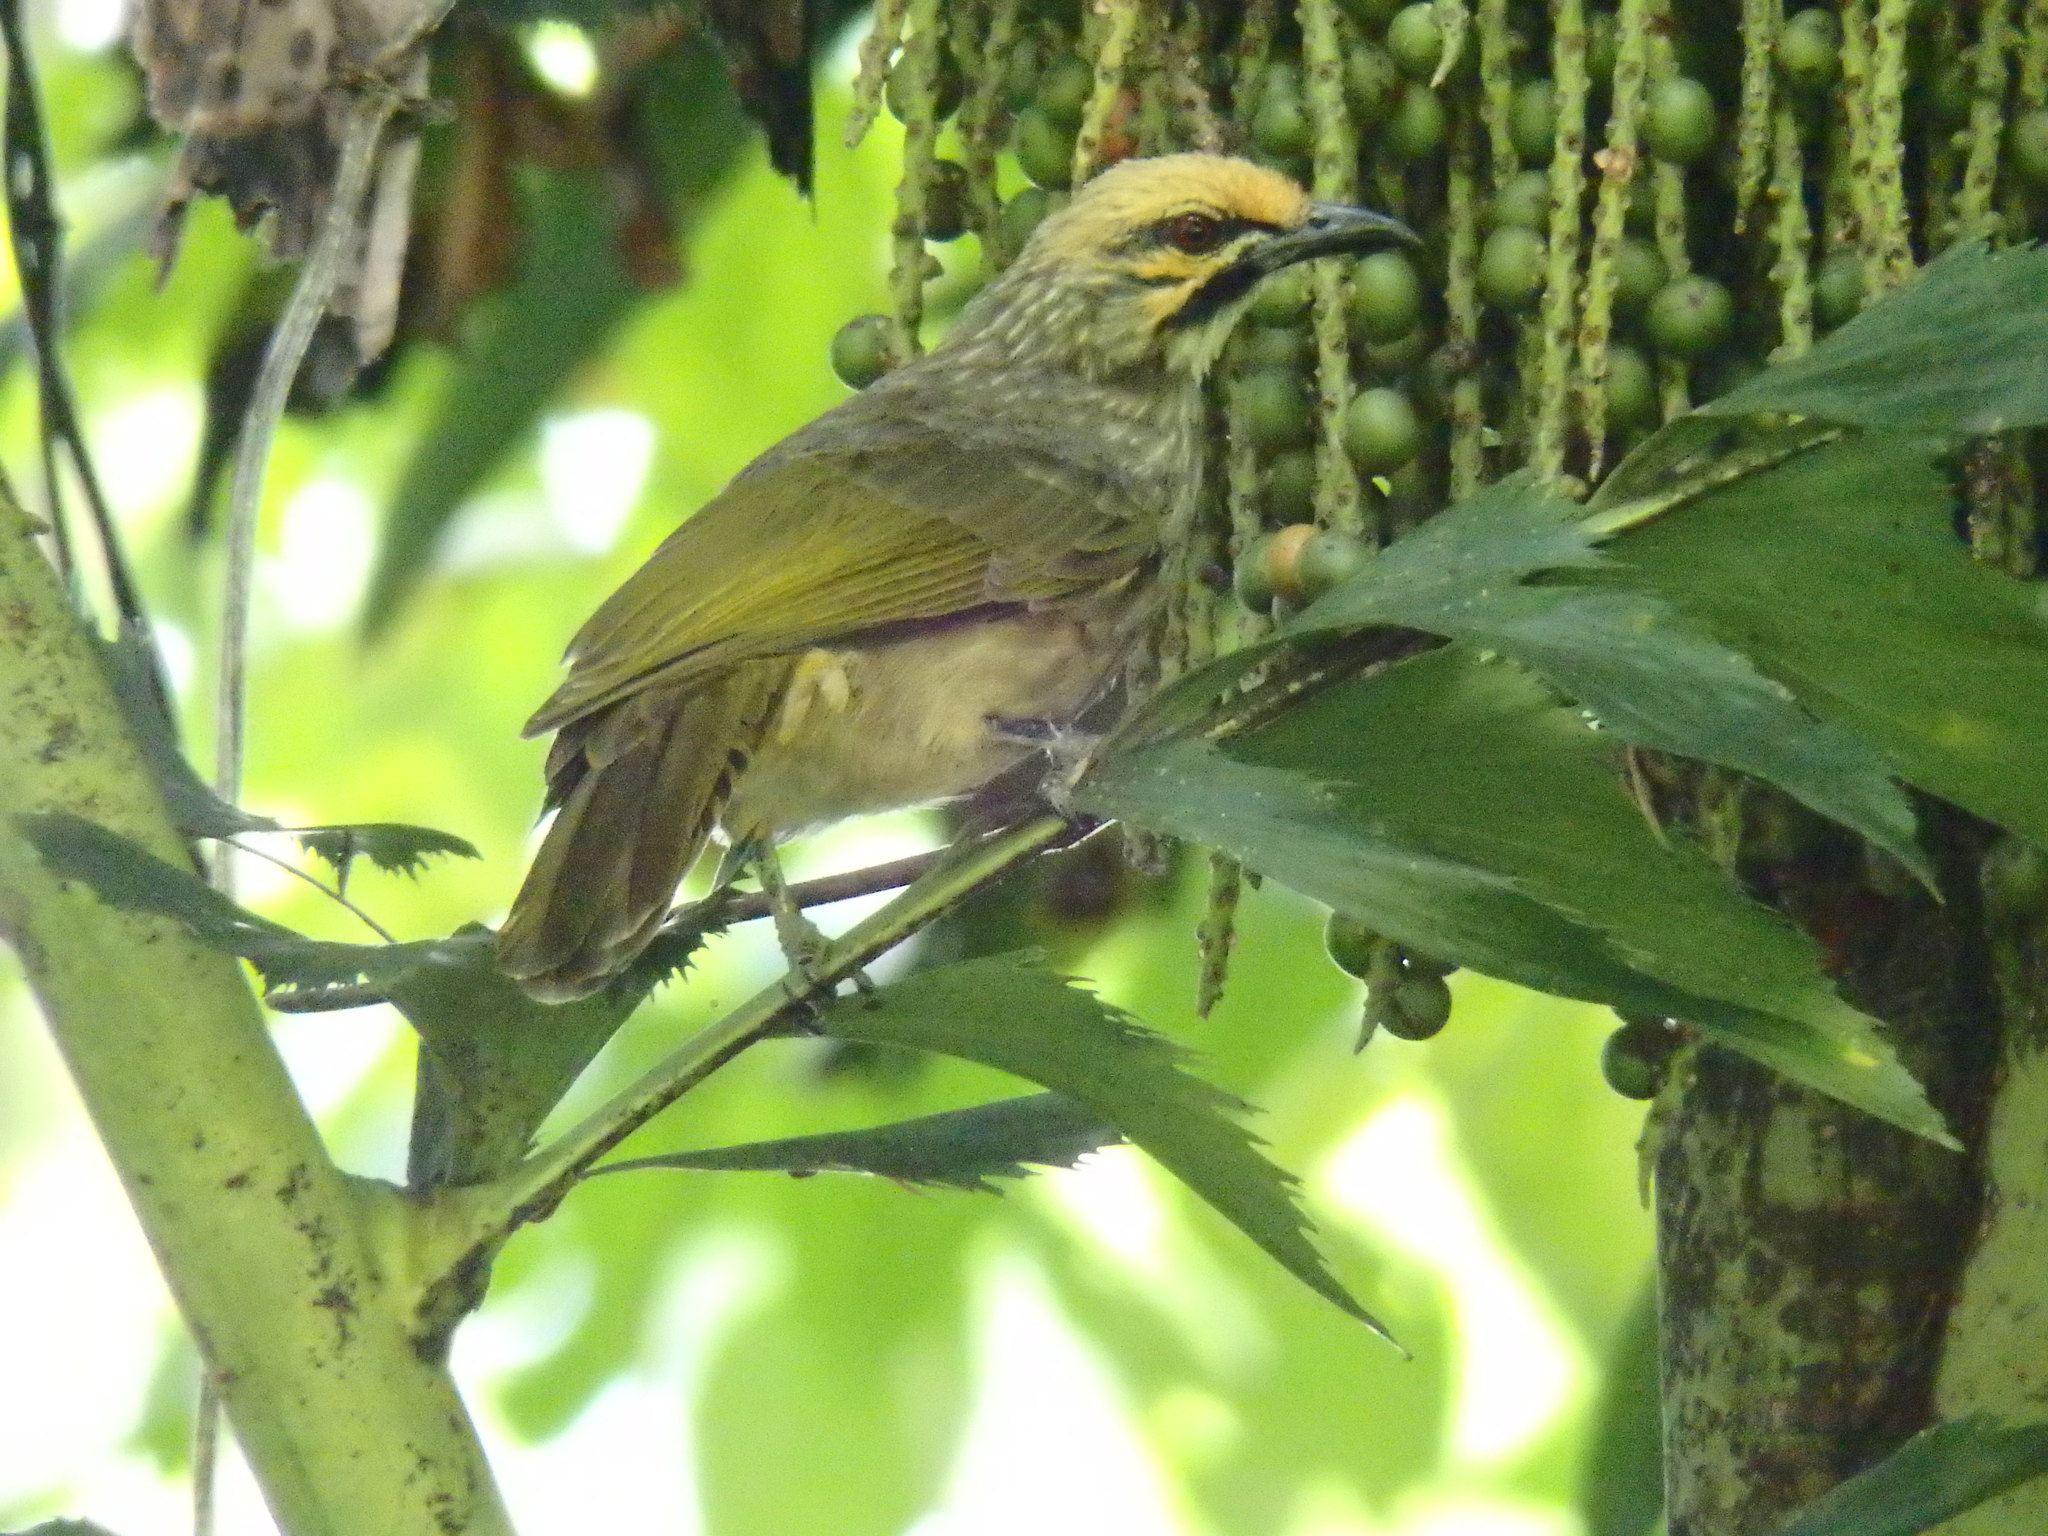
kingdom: Animalia
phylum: Chordata
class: Aves
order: Passeriformes
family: Pycnonotidae
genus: Pycnonotus
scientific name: Pycnonotus zeylanicus
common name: Straw-headed bulbul
